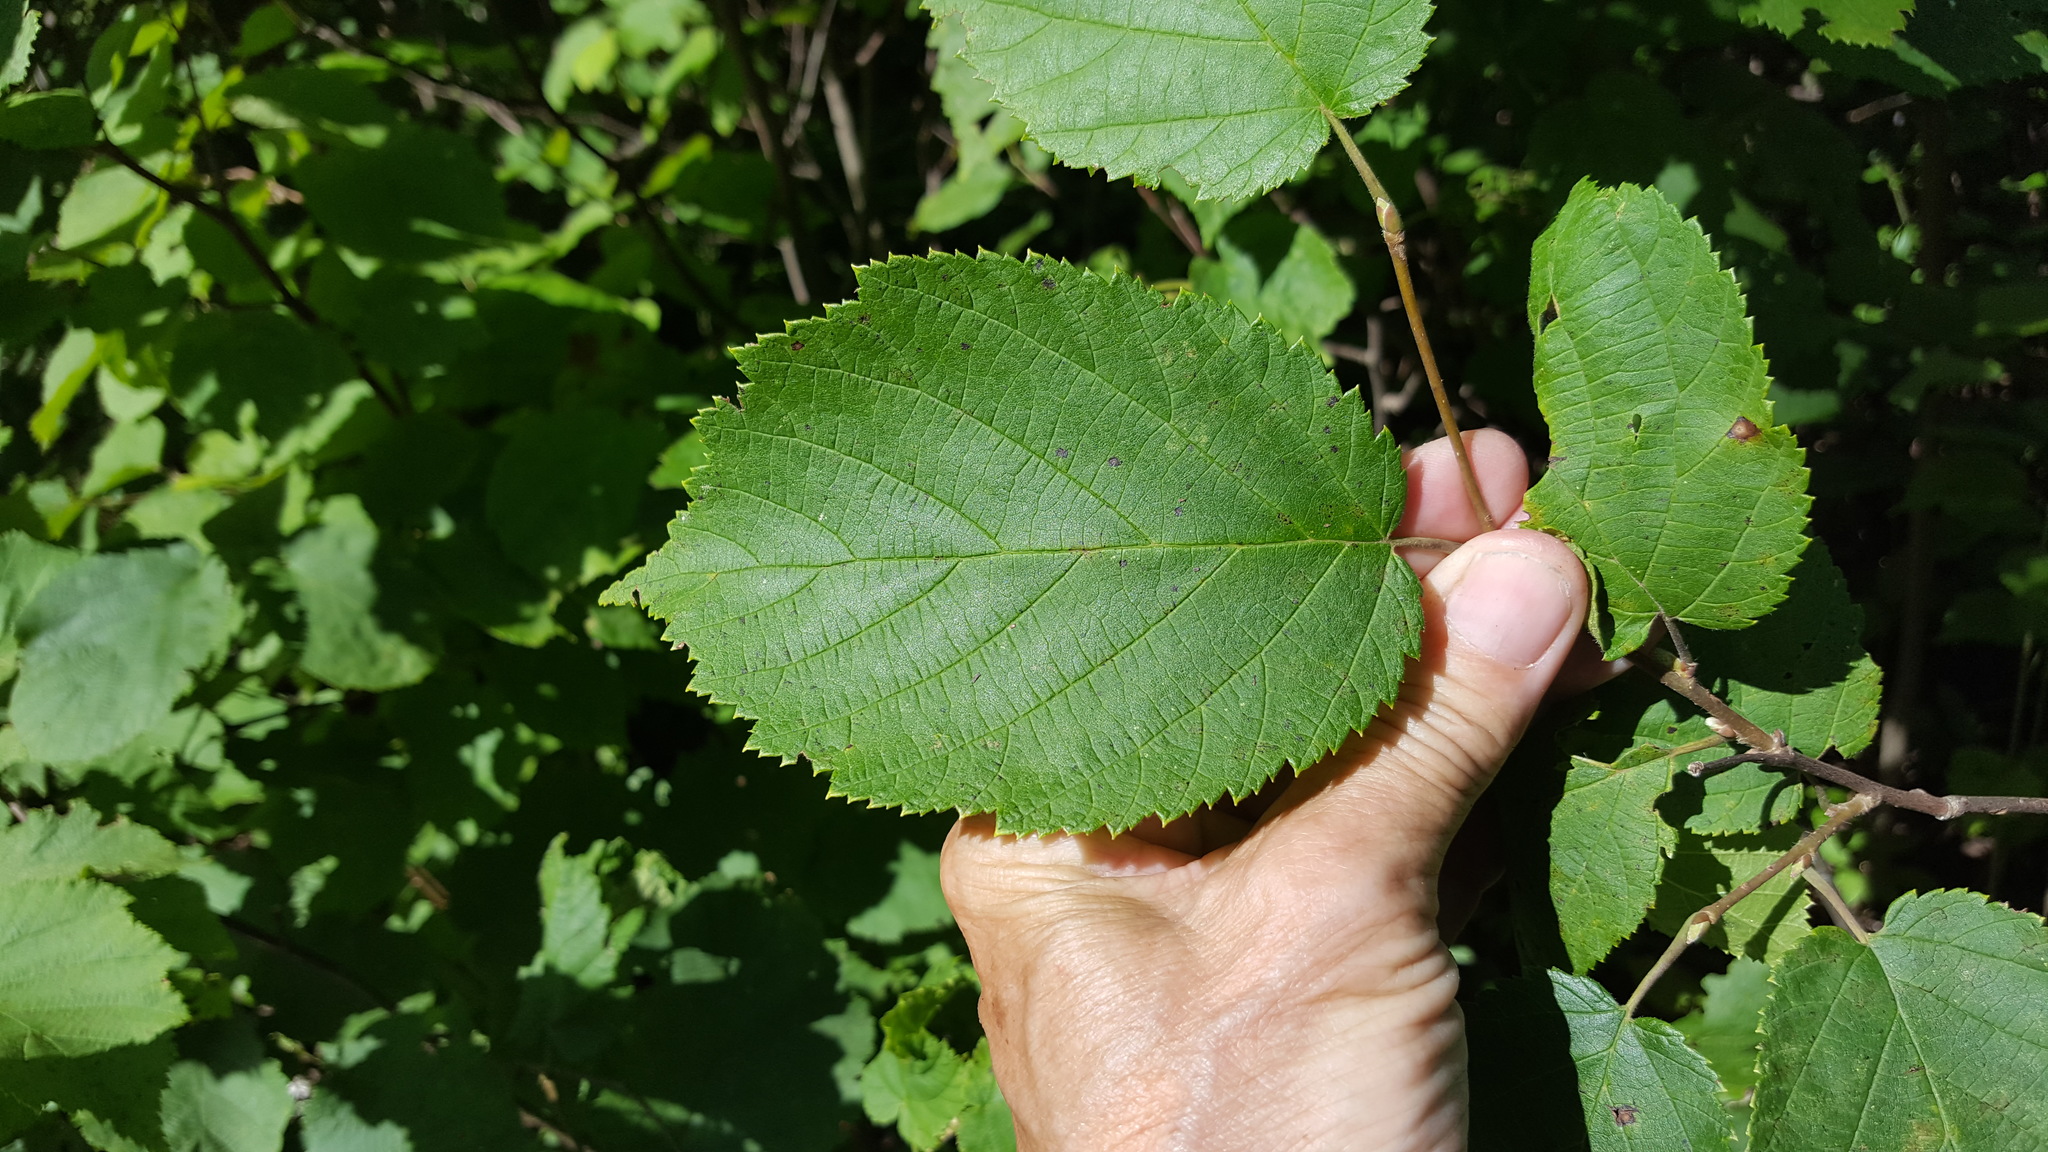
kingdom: Plantae
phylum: Tracheophyta
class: Magnoliopsida
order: Fagales
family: Betulaceae
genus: Corylus
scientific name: Corylus cornuta
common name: Beaked hazel
